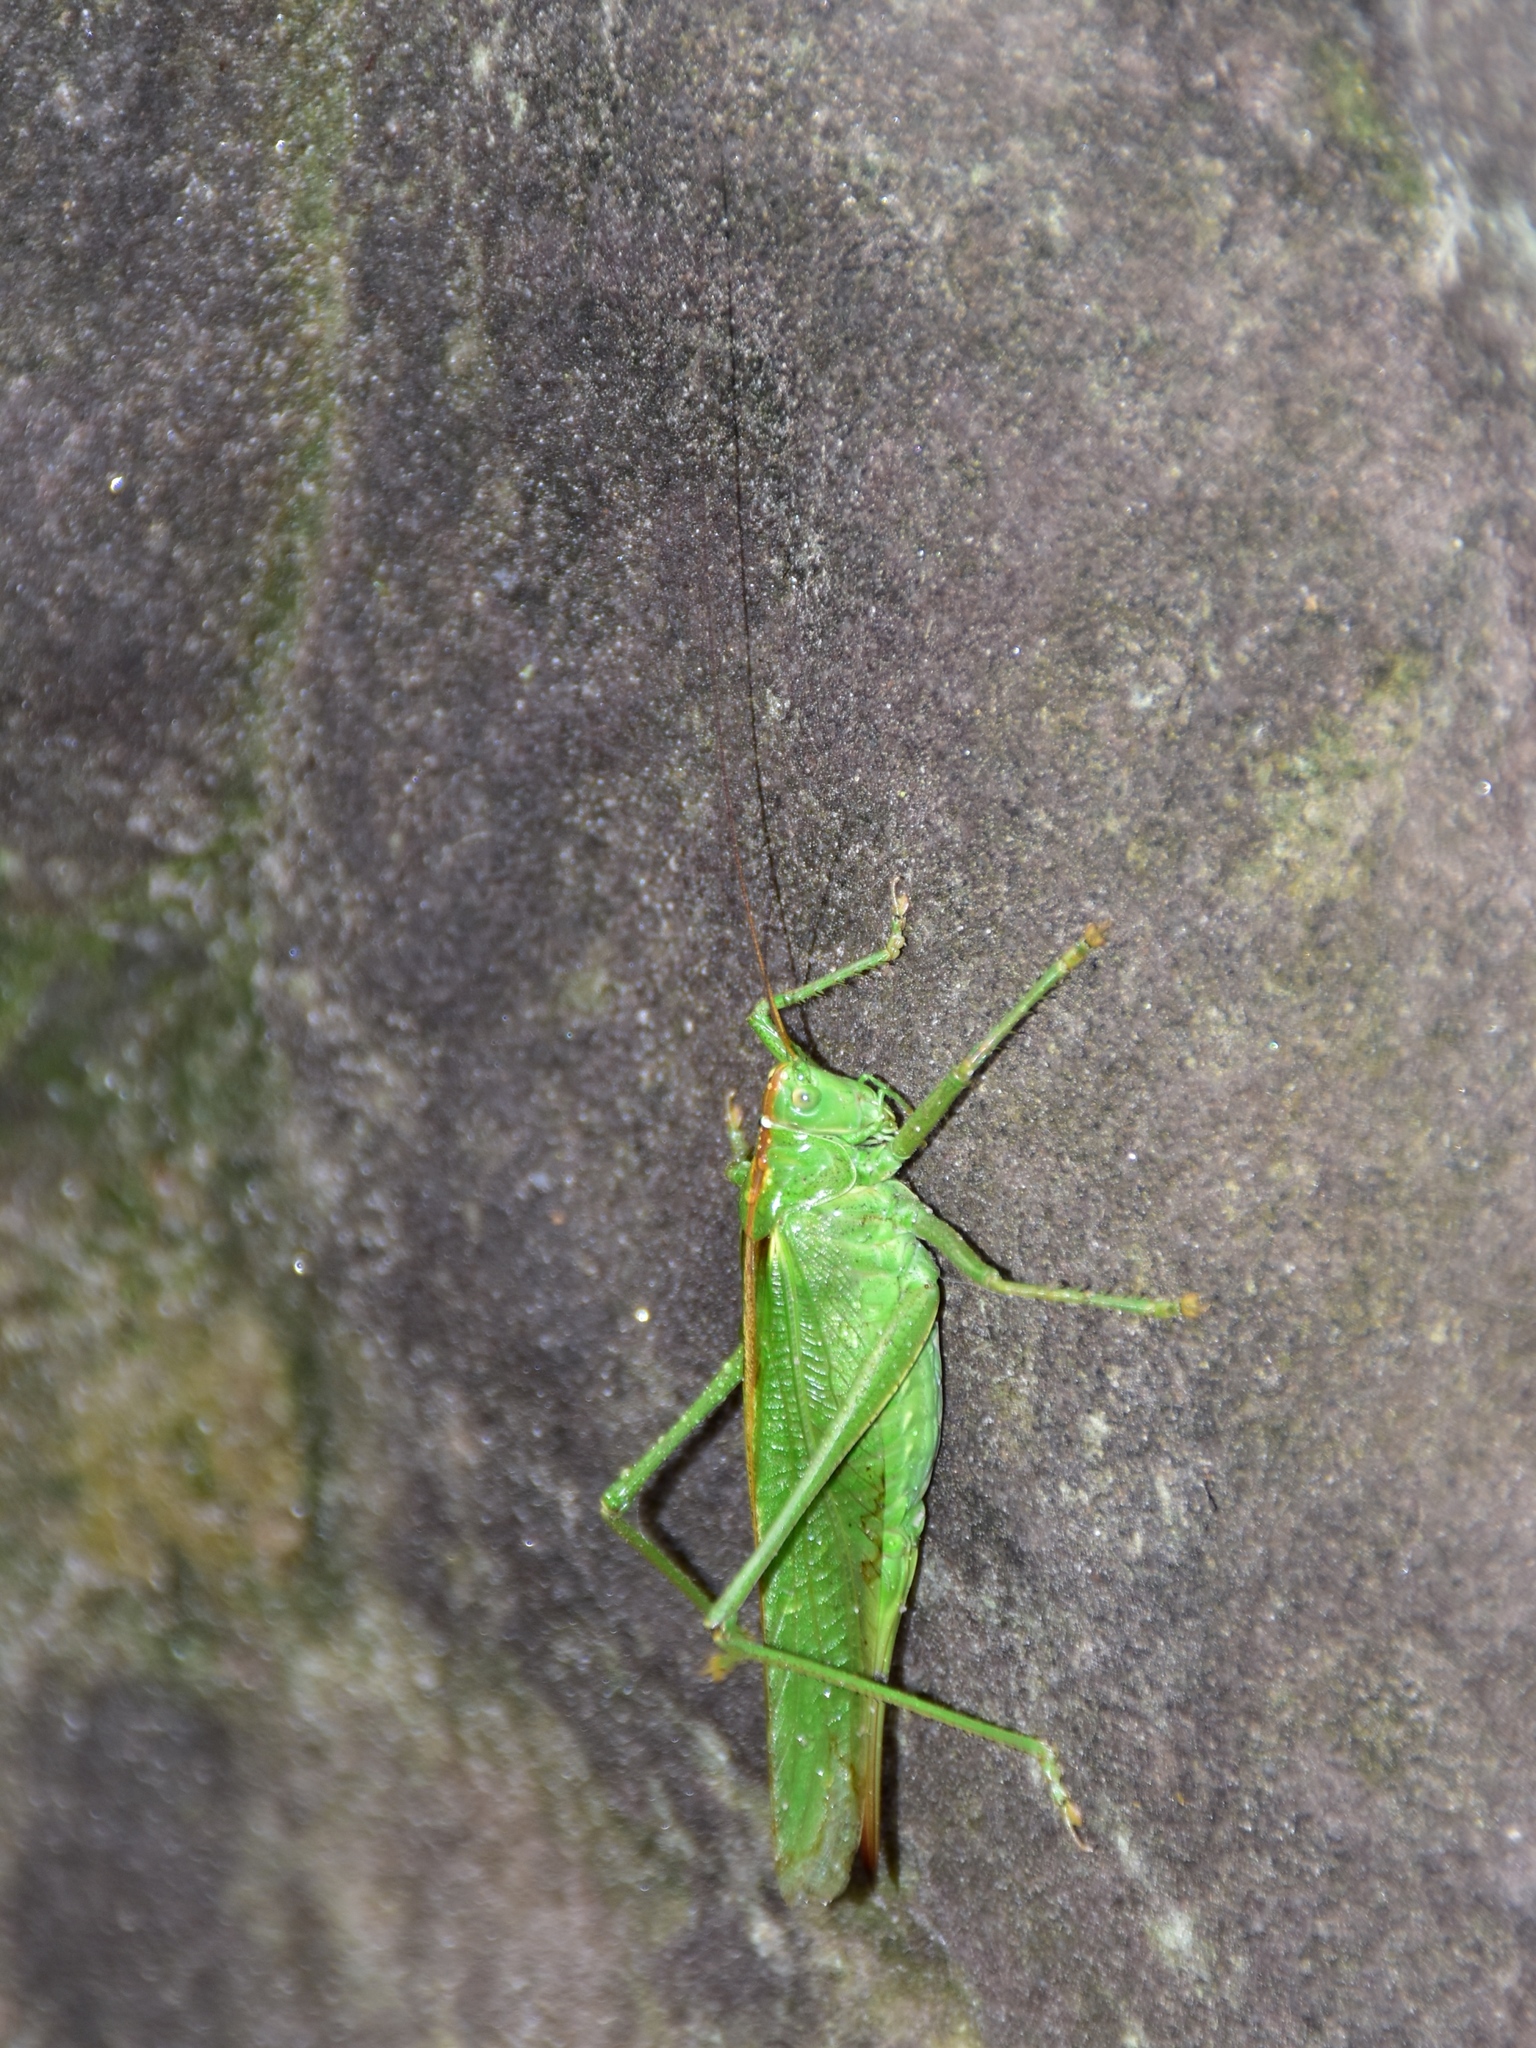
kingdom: Animalia
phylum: Arthropoda
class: Insecta
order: Orthoptera
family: Tettigoniidae
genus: Tettigonia
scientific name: Tettigonia viridissima
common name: Great green bush-cricket
